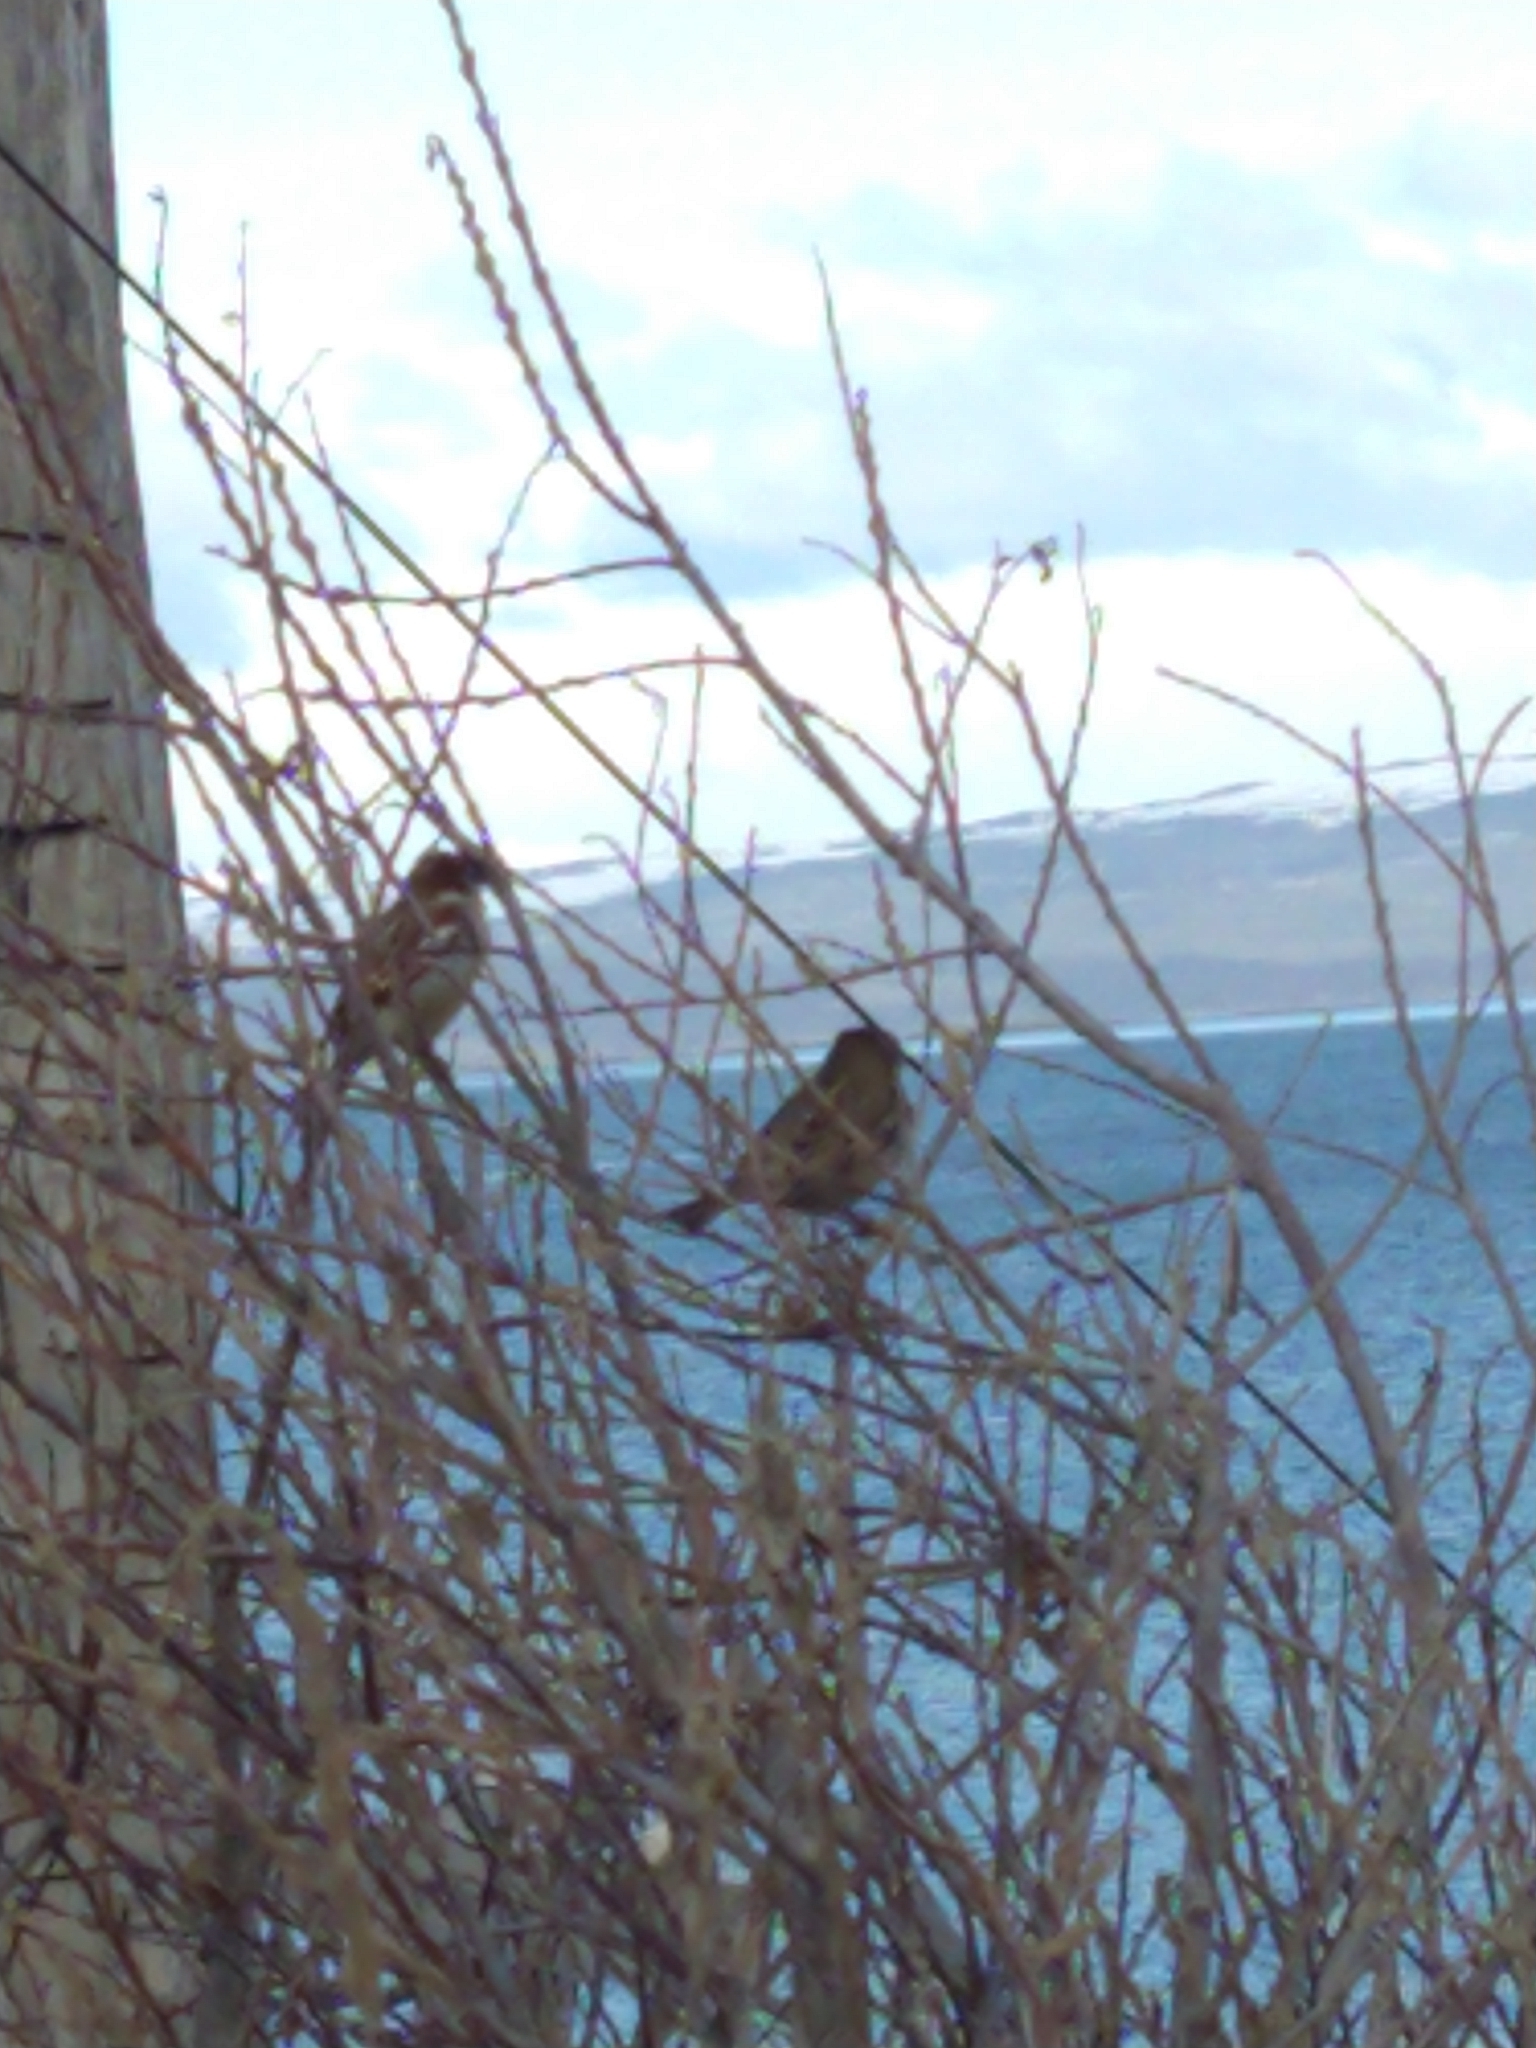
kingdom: Animalia
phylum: Chordata
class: Aves
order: Passeriformes
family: Passeridae
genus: Passer
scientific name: Passer domesticus
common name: House sparrow
